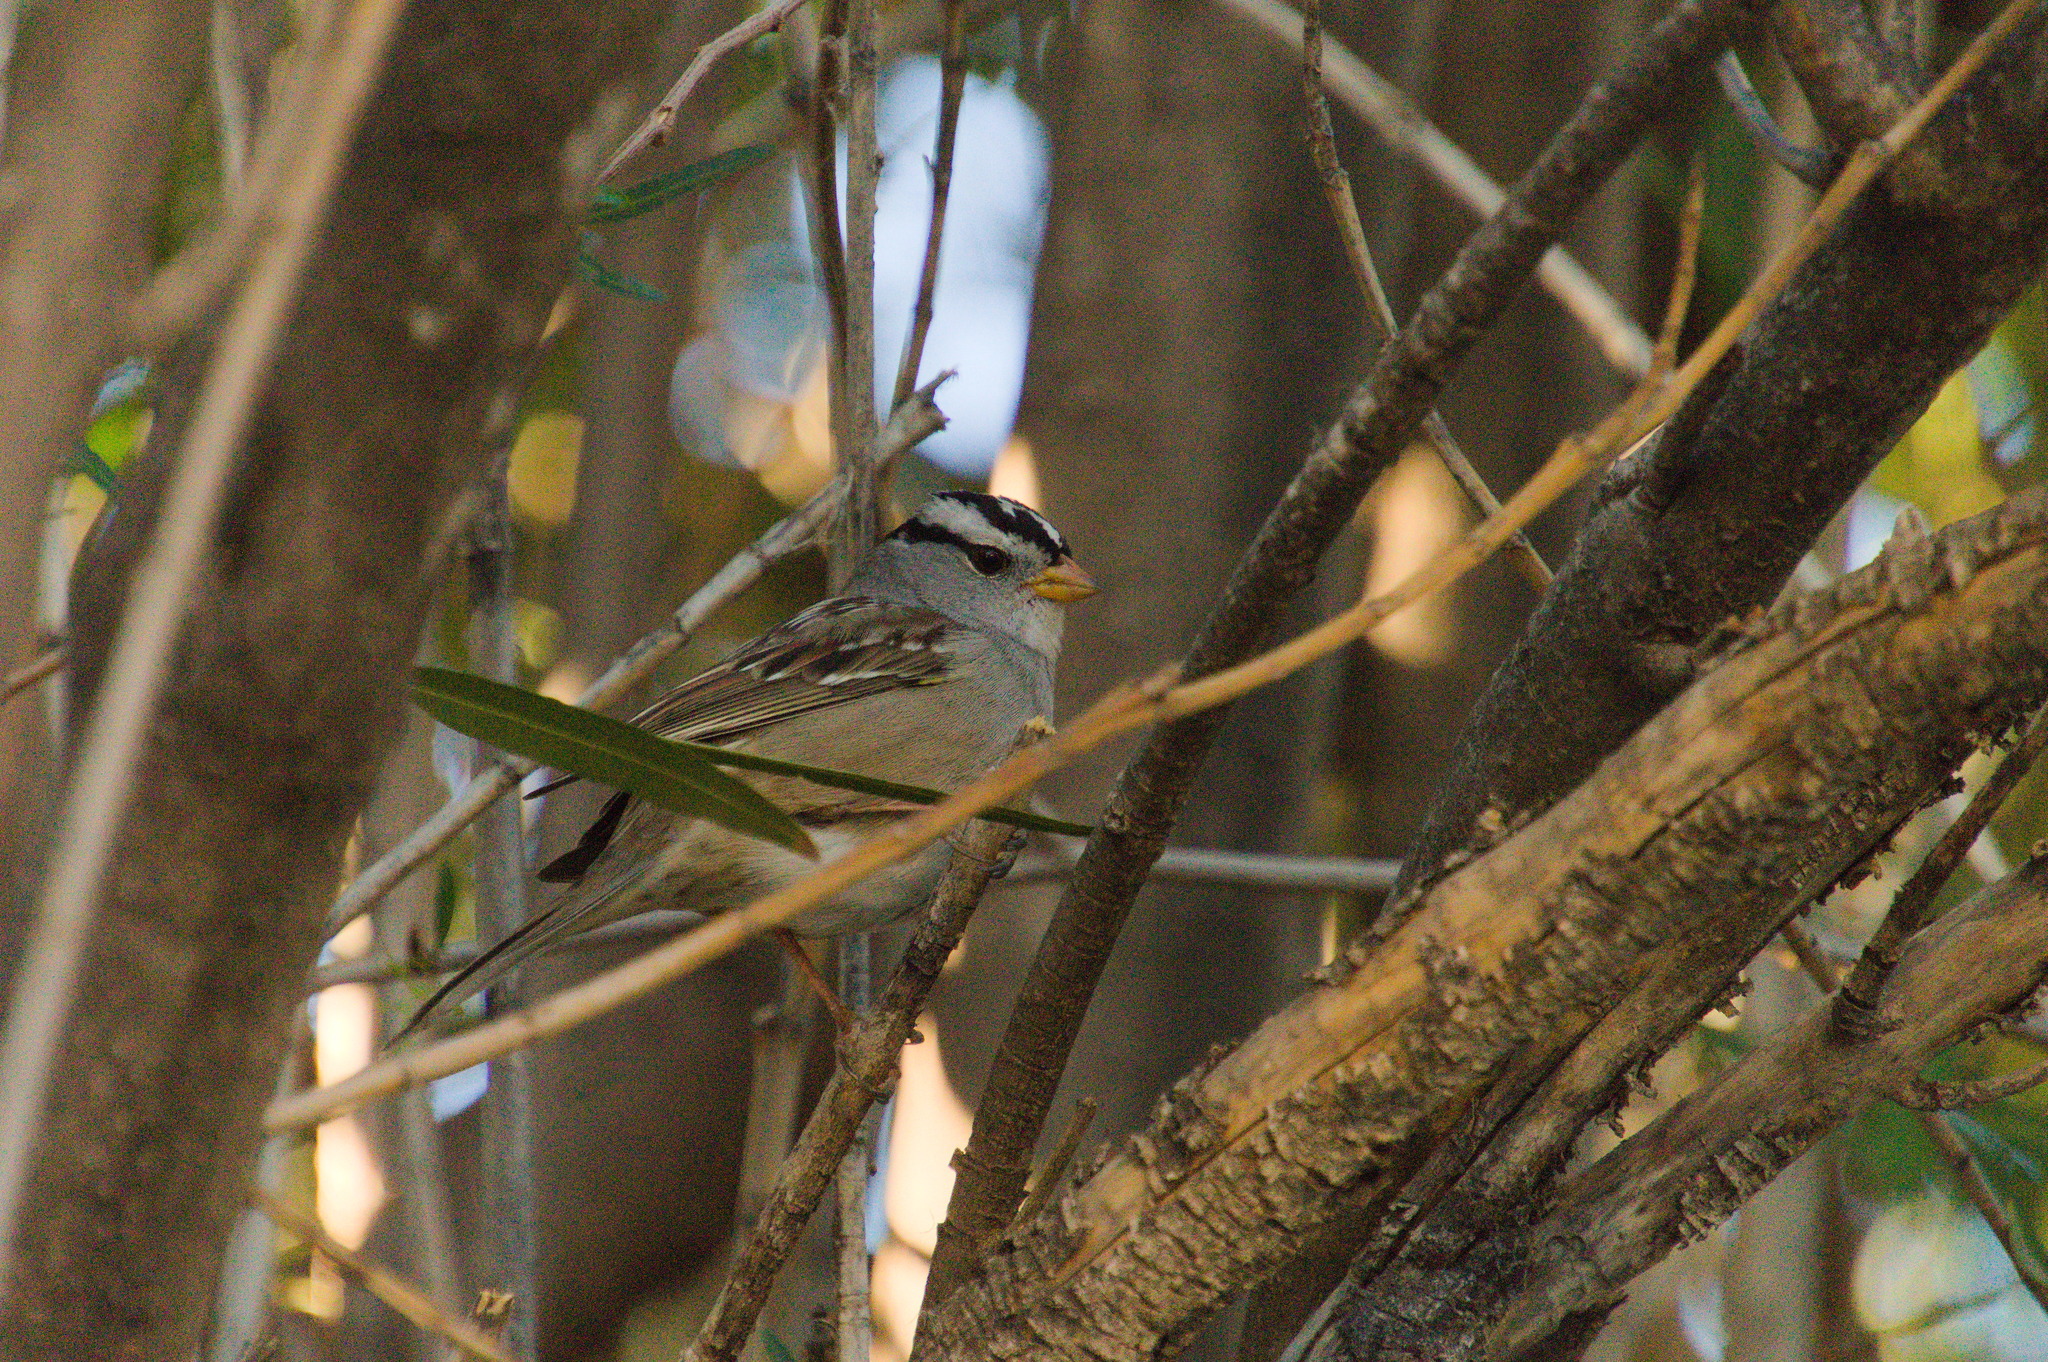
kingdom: Animalia
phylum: Chordata
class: Aves
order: Passeriformes
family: Passerellidae
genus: Zonotrichia
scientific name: Zonotrichia leucophrys
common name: White-crowned sparrow
